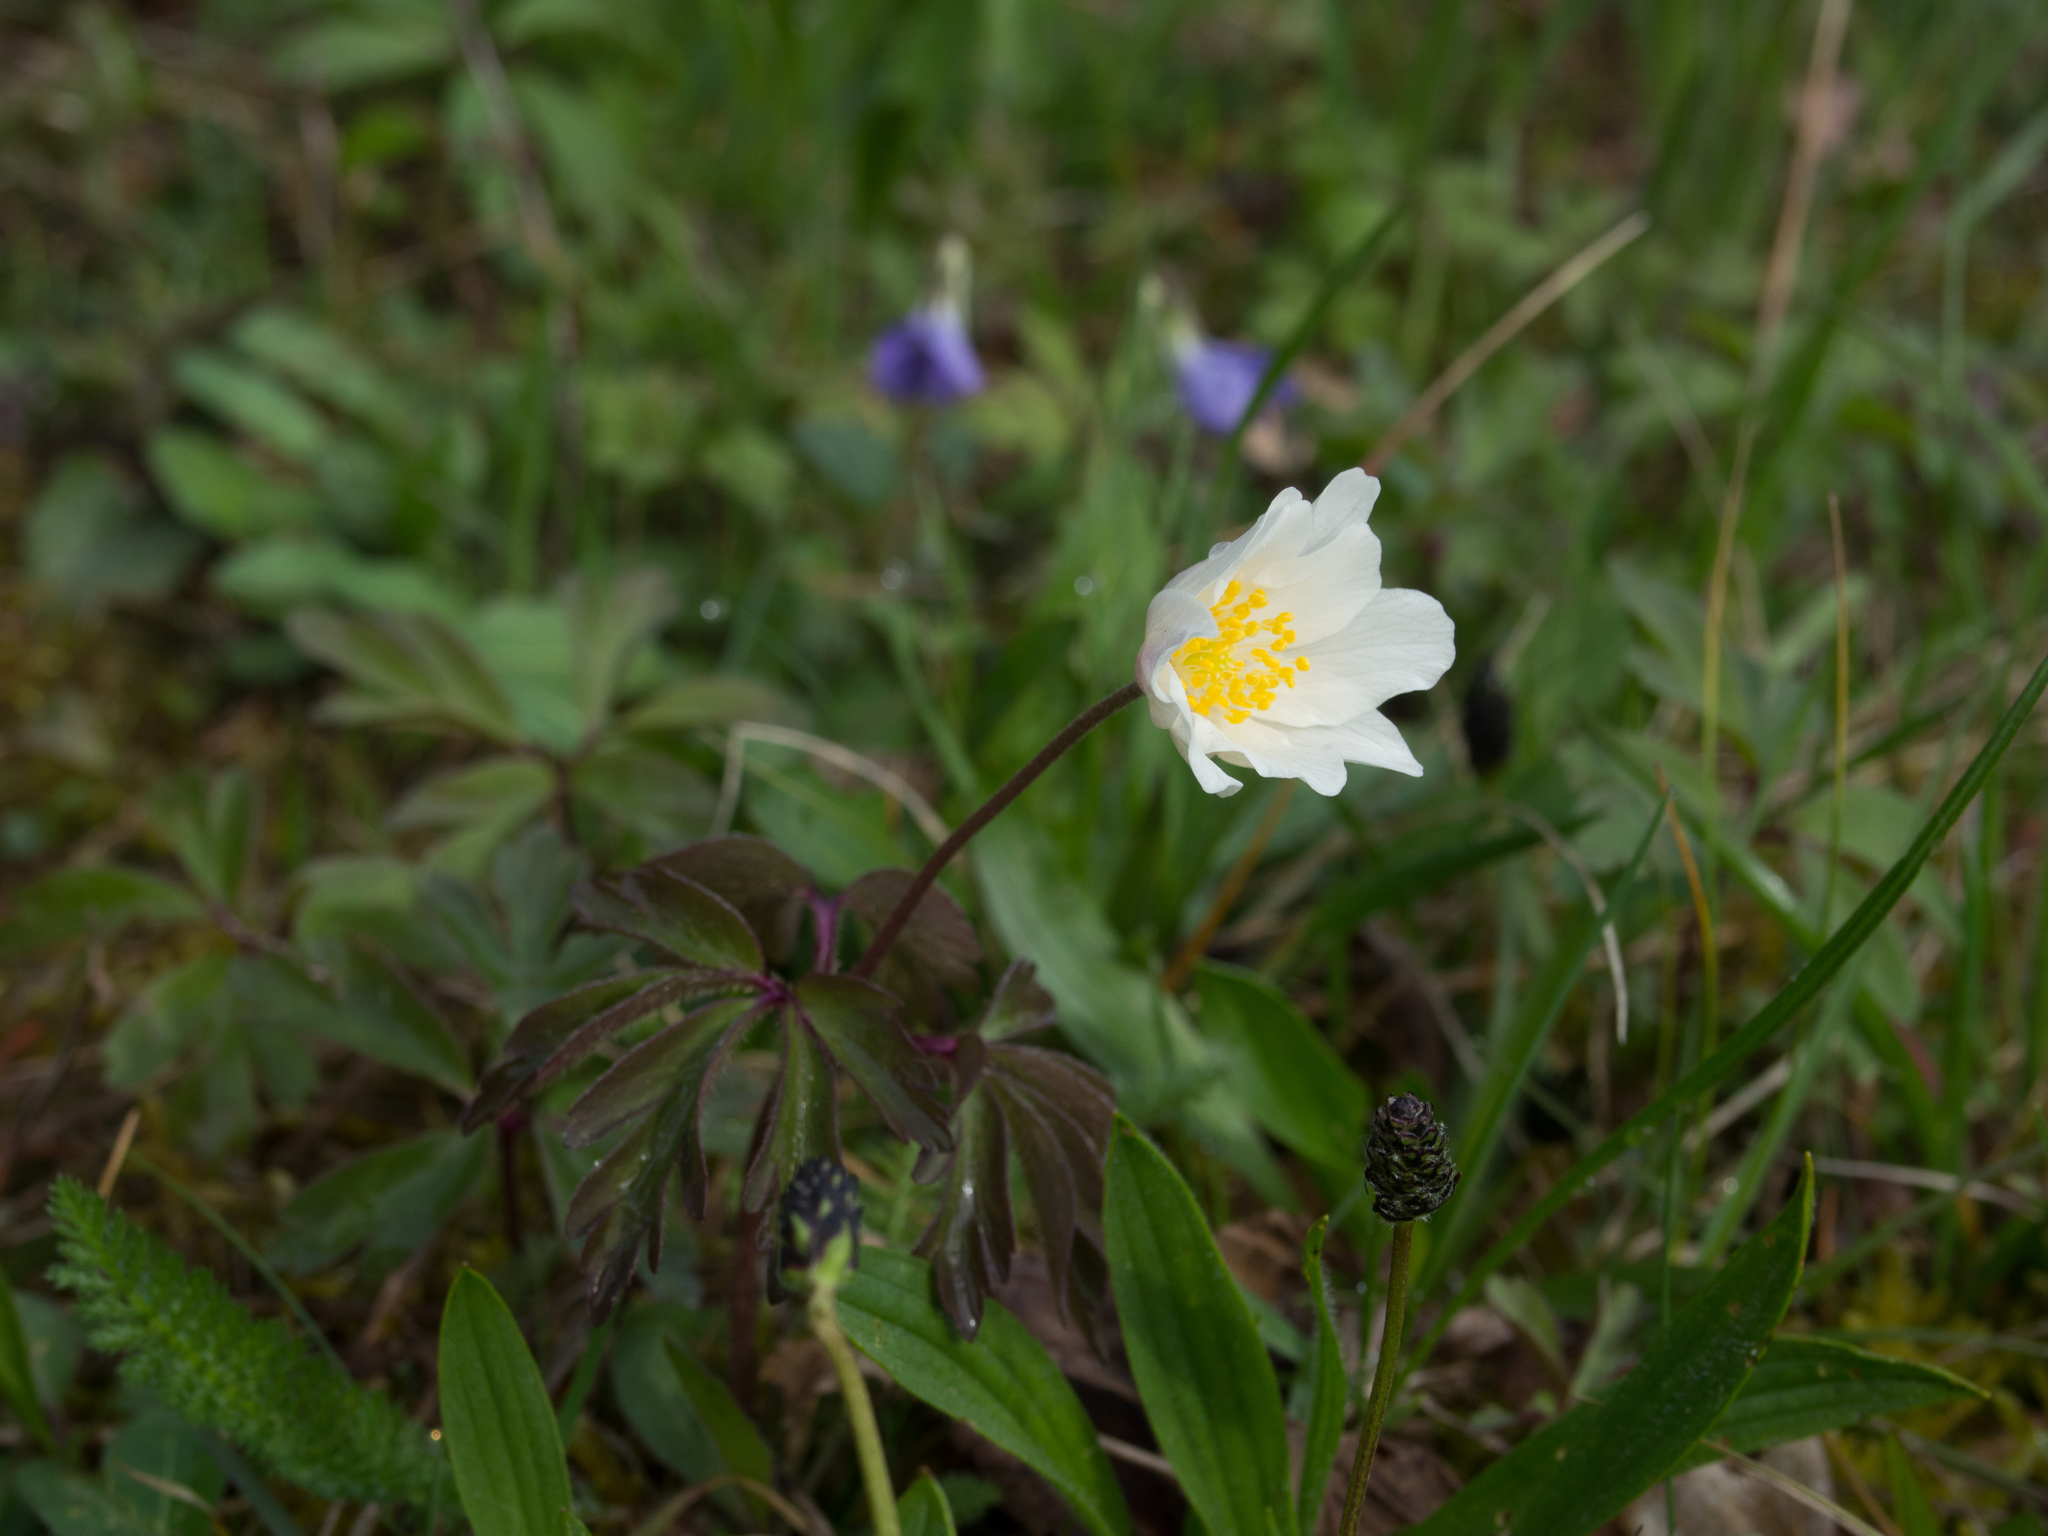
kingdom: Plantae
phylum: Tracheophyta
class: Magnoliopsida
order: Ranunculales
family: Ranunculaceae
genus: Anemone
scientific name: Anemone nemorosa
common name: Wood anemone
